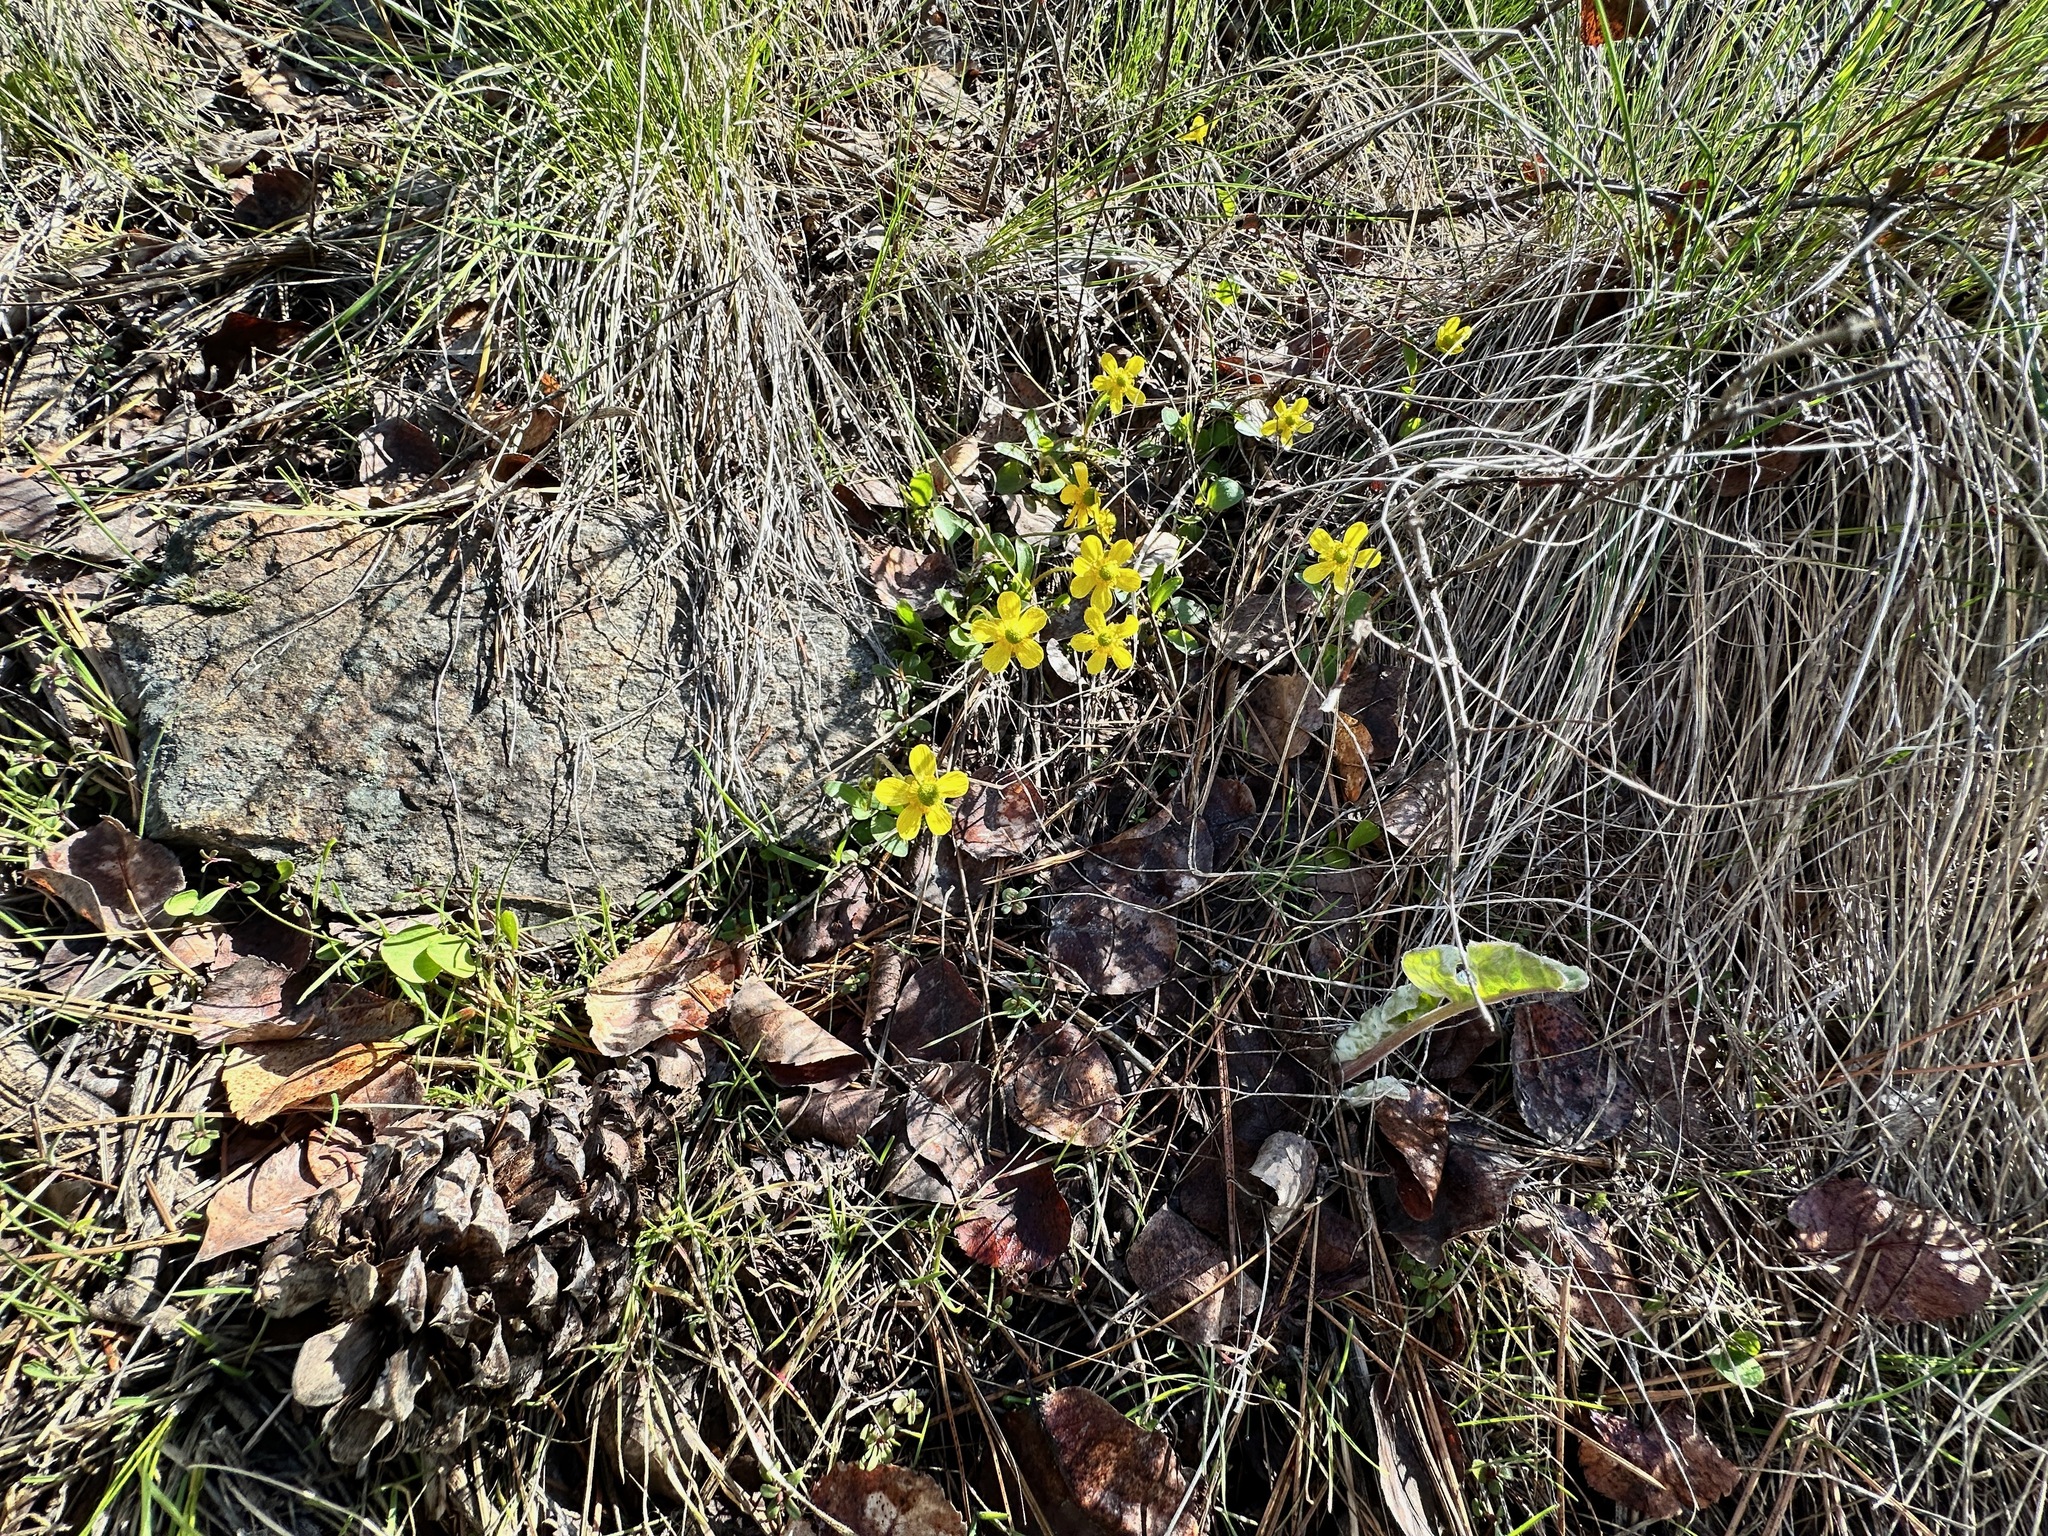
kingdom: Plantae
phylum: Tracheophyta
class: Magnoliopsida
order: Ranunculales
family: Ranunculaceae
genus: Ranunculus
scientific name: Ranunculus glaberrimus
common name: Sagebrush buttercup
